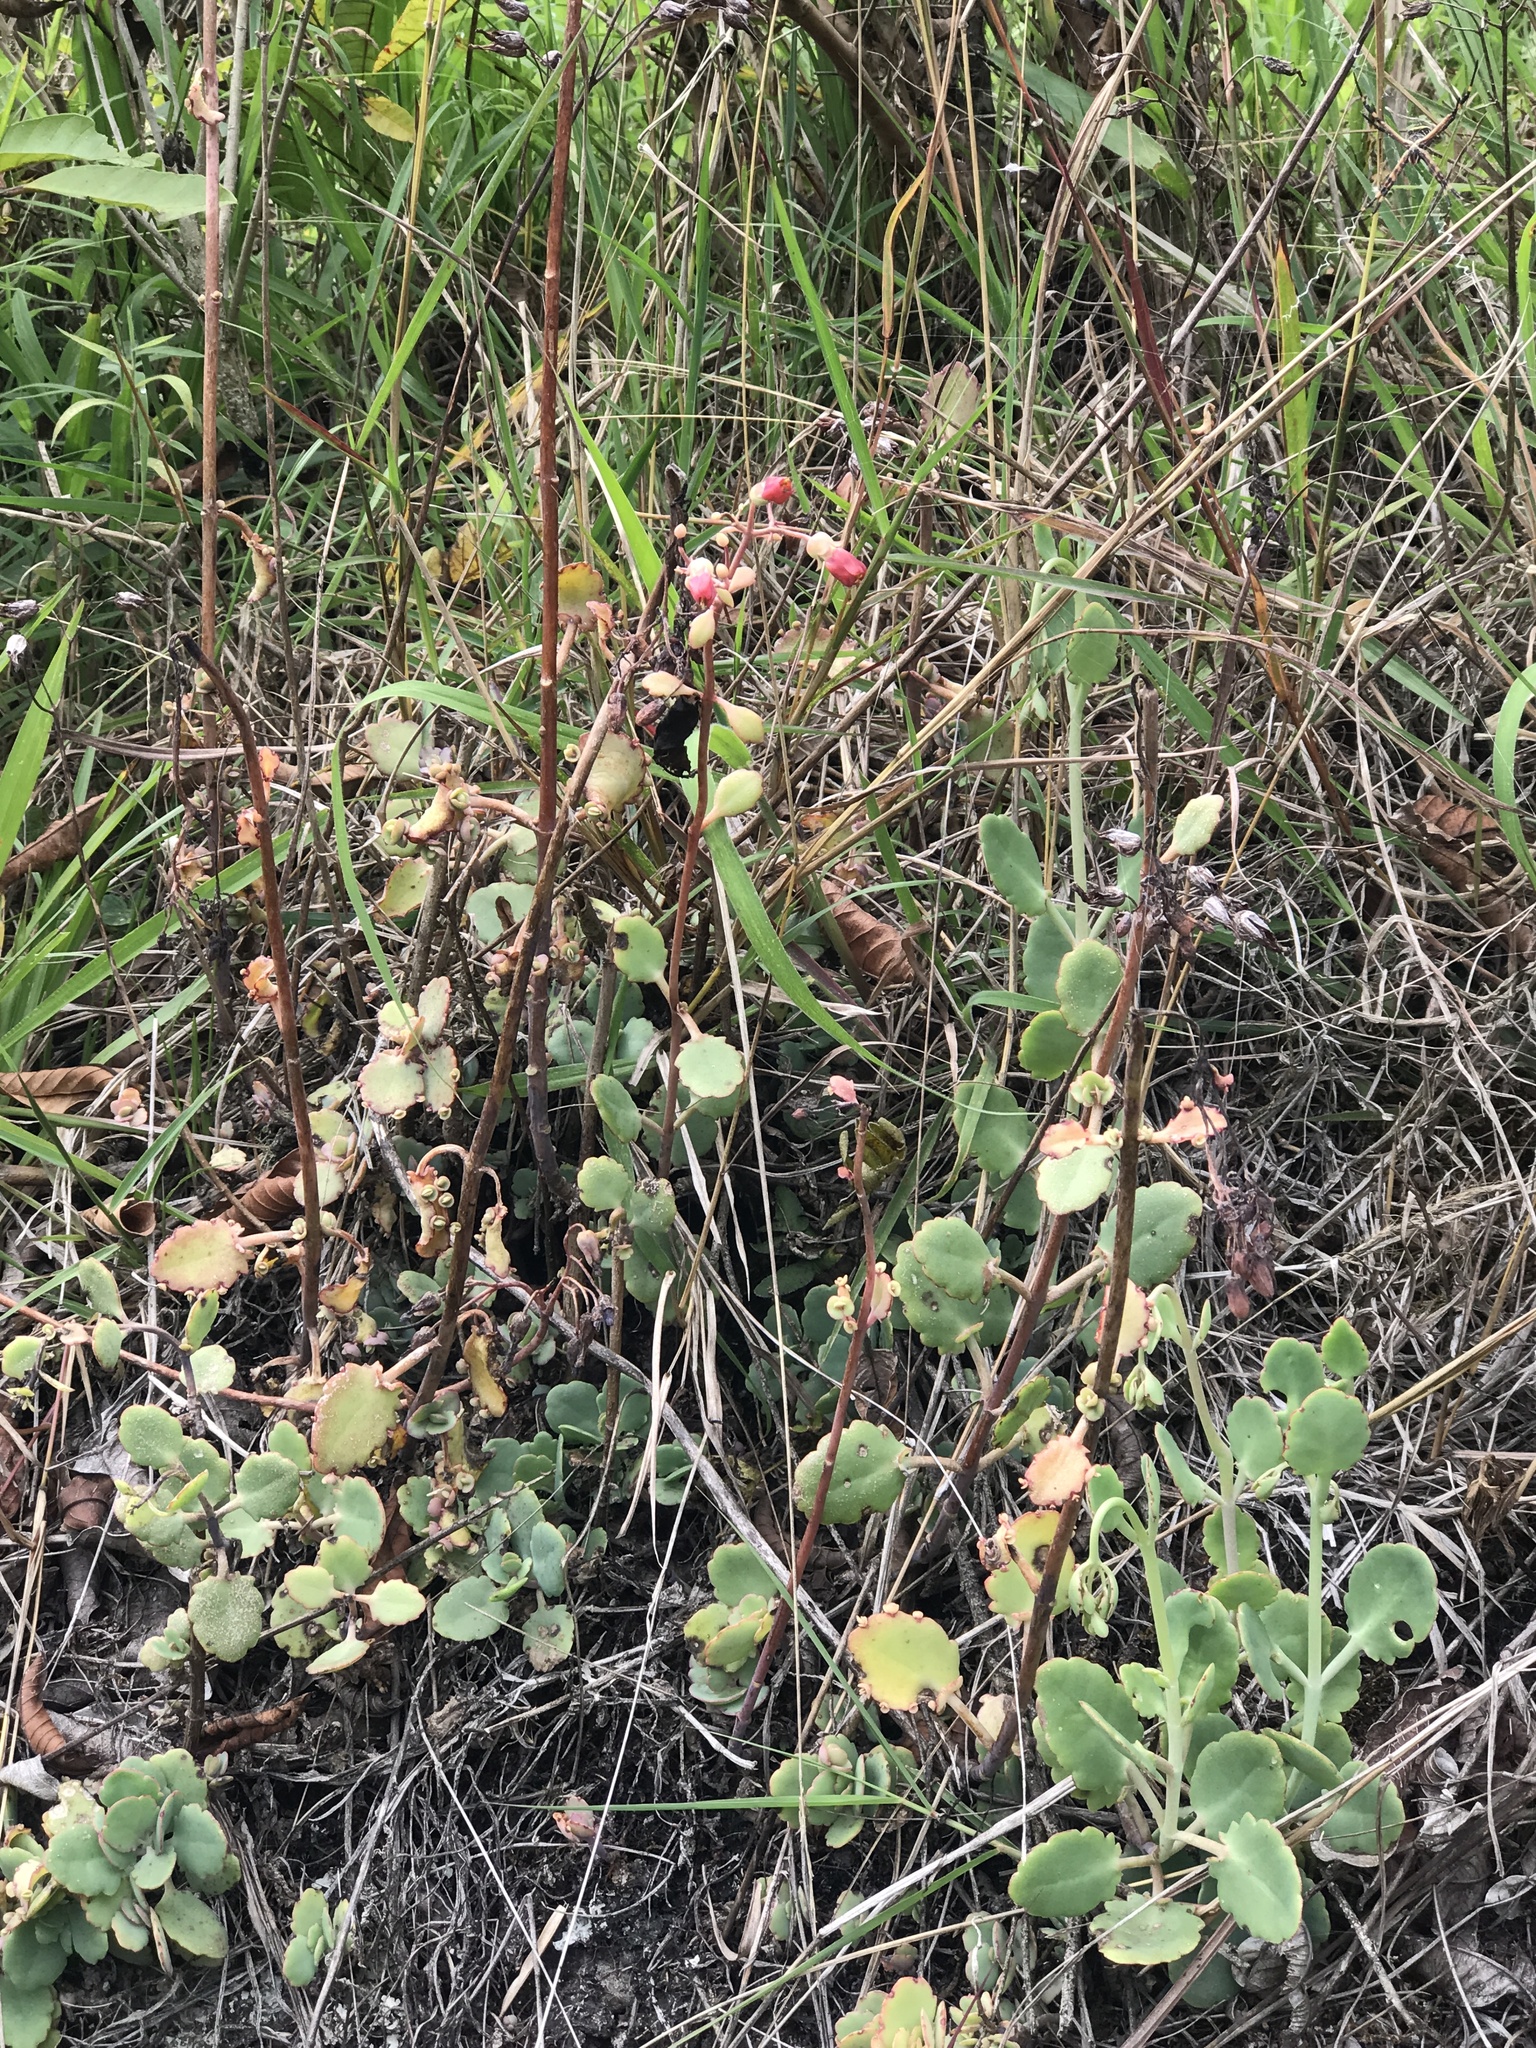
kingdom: Plantae
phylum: Tracheophyta
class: Magnoliopsida
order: Saxifragales
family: Crassulaceae
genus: Kalanchoe
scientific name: Kalanchoe laxiflora
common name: Milky widow's thrill
